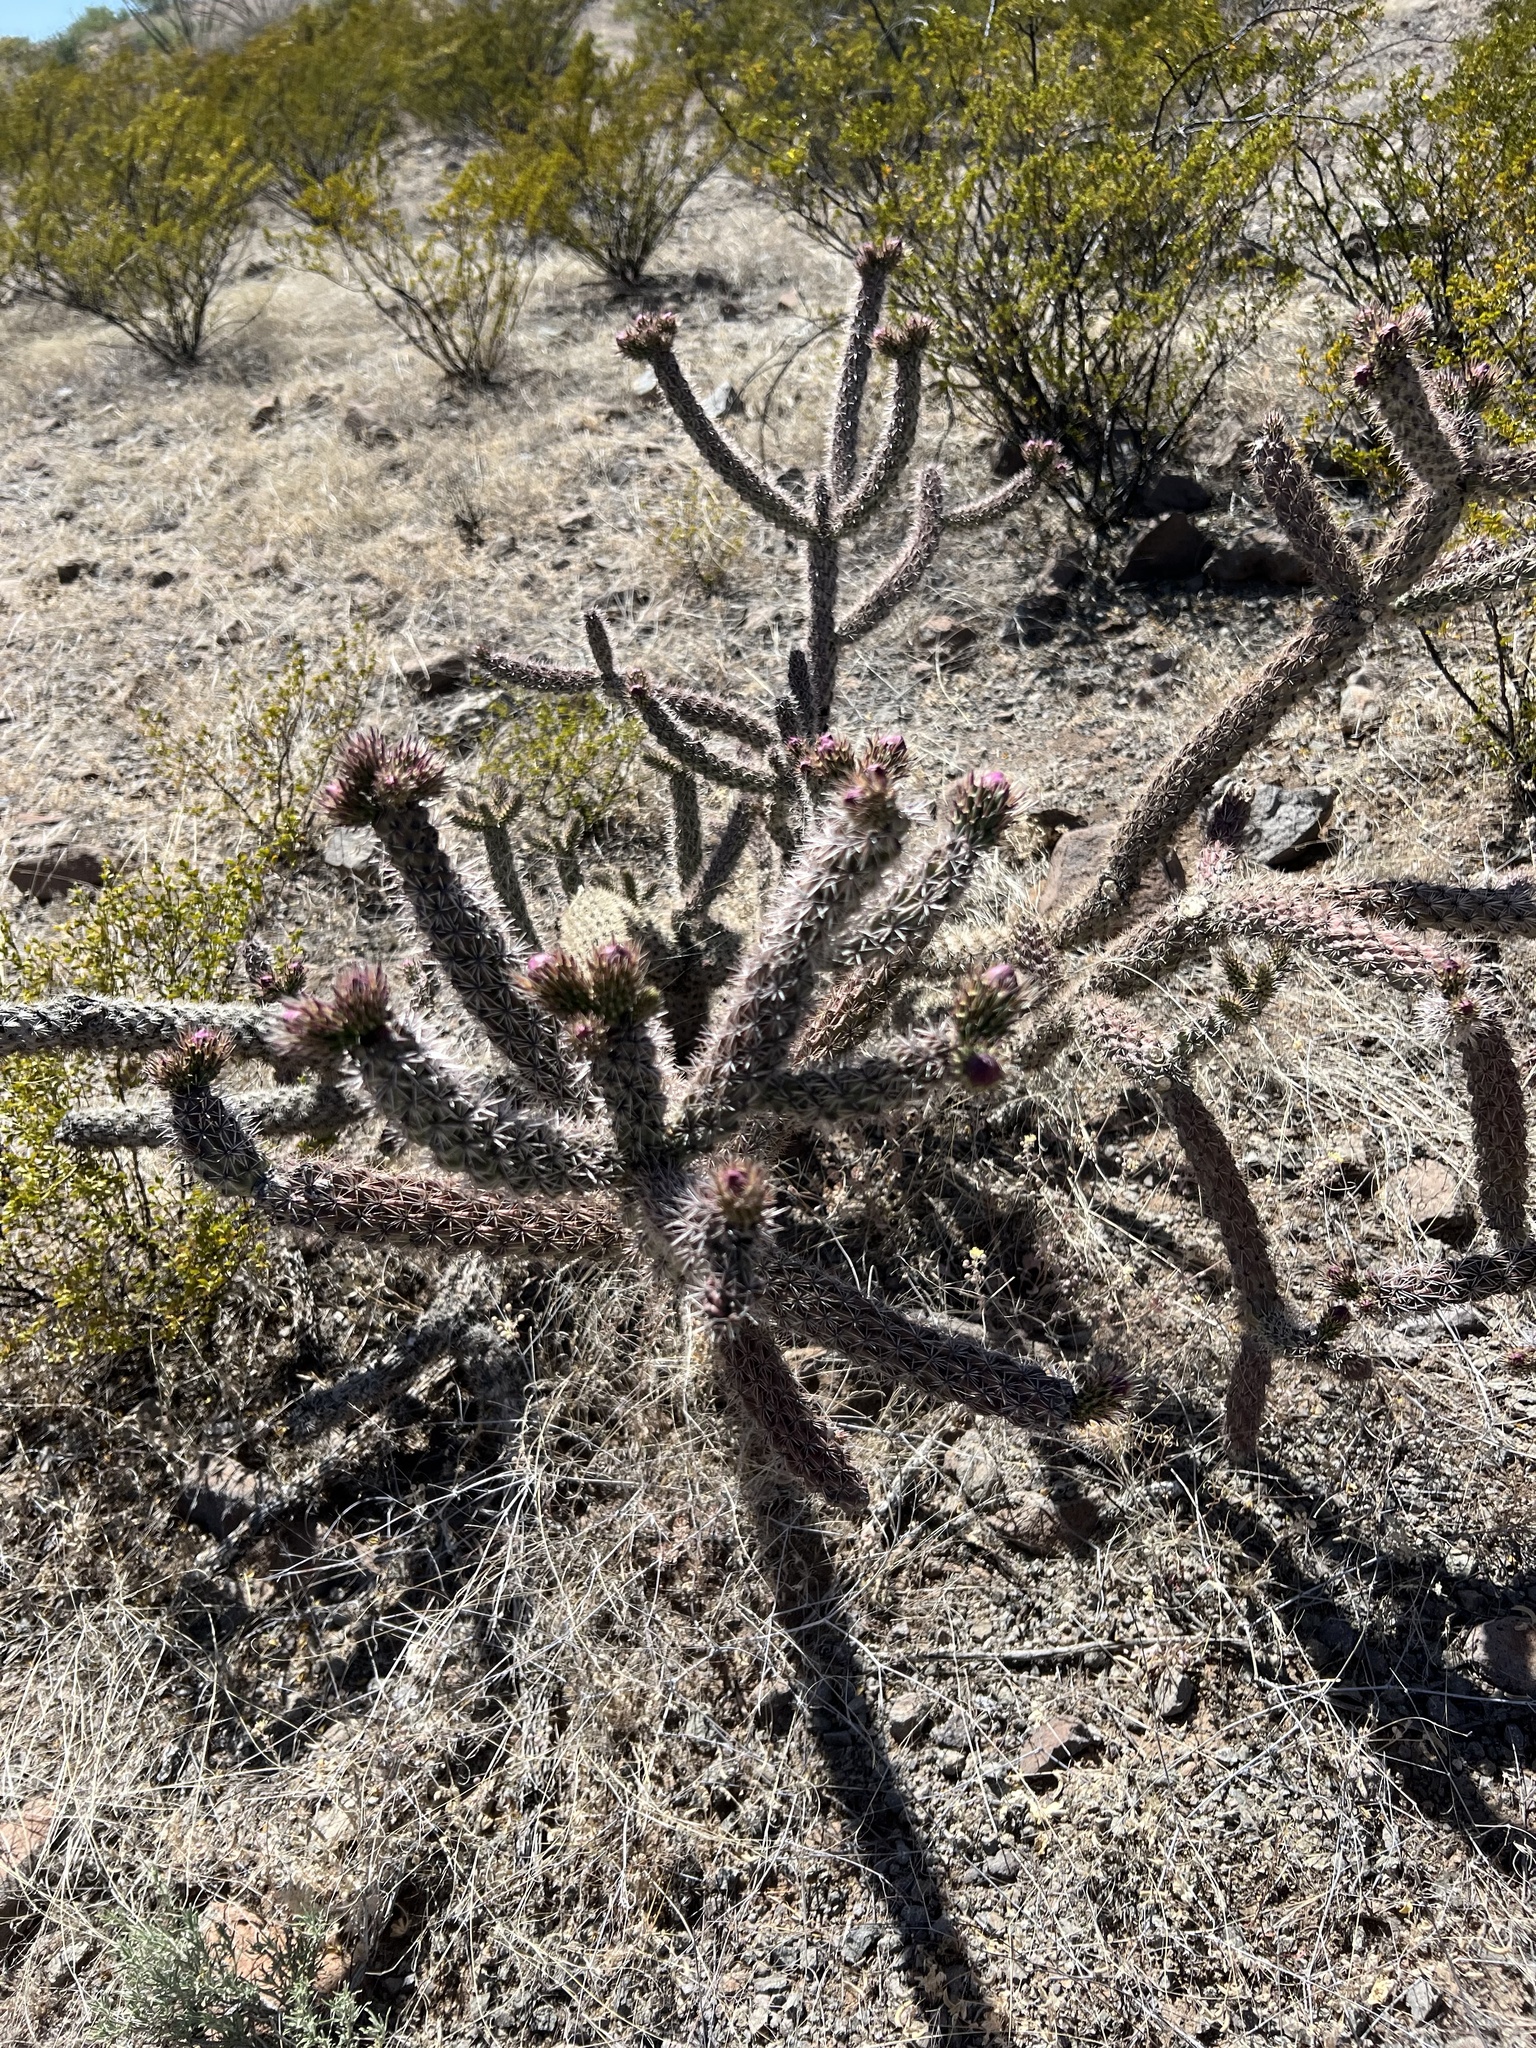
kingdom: Plantae
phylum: Tracheophyta
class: Magnoliopsida
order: Caryophyllales
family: Cactaceae
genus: Cylindropuntia
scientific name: Cylindropuntia imbricata
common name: Candelabrum cactus
